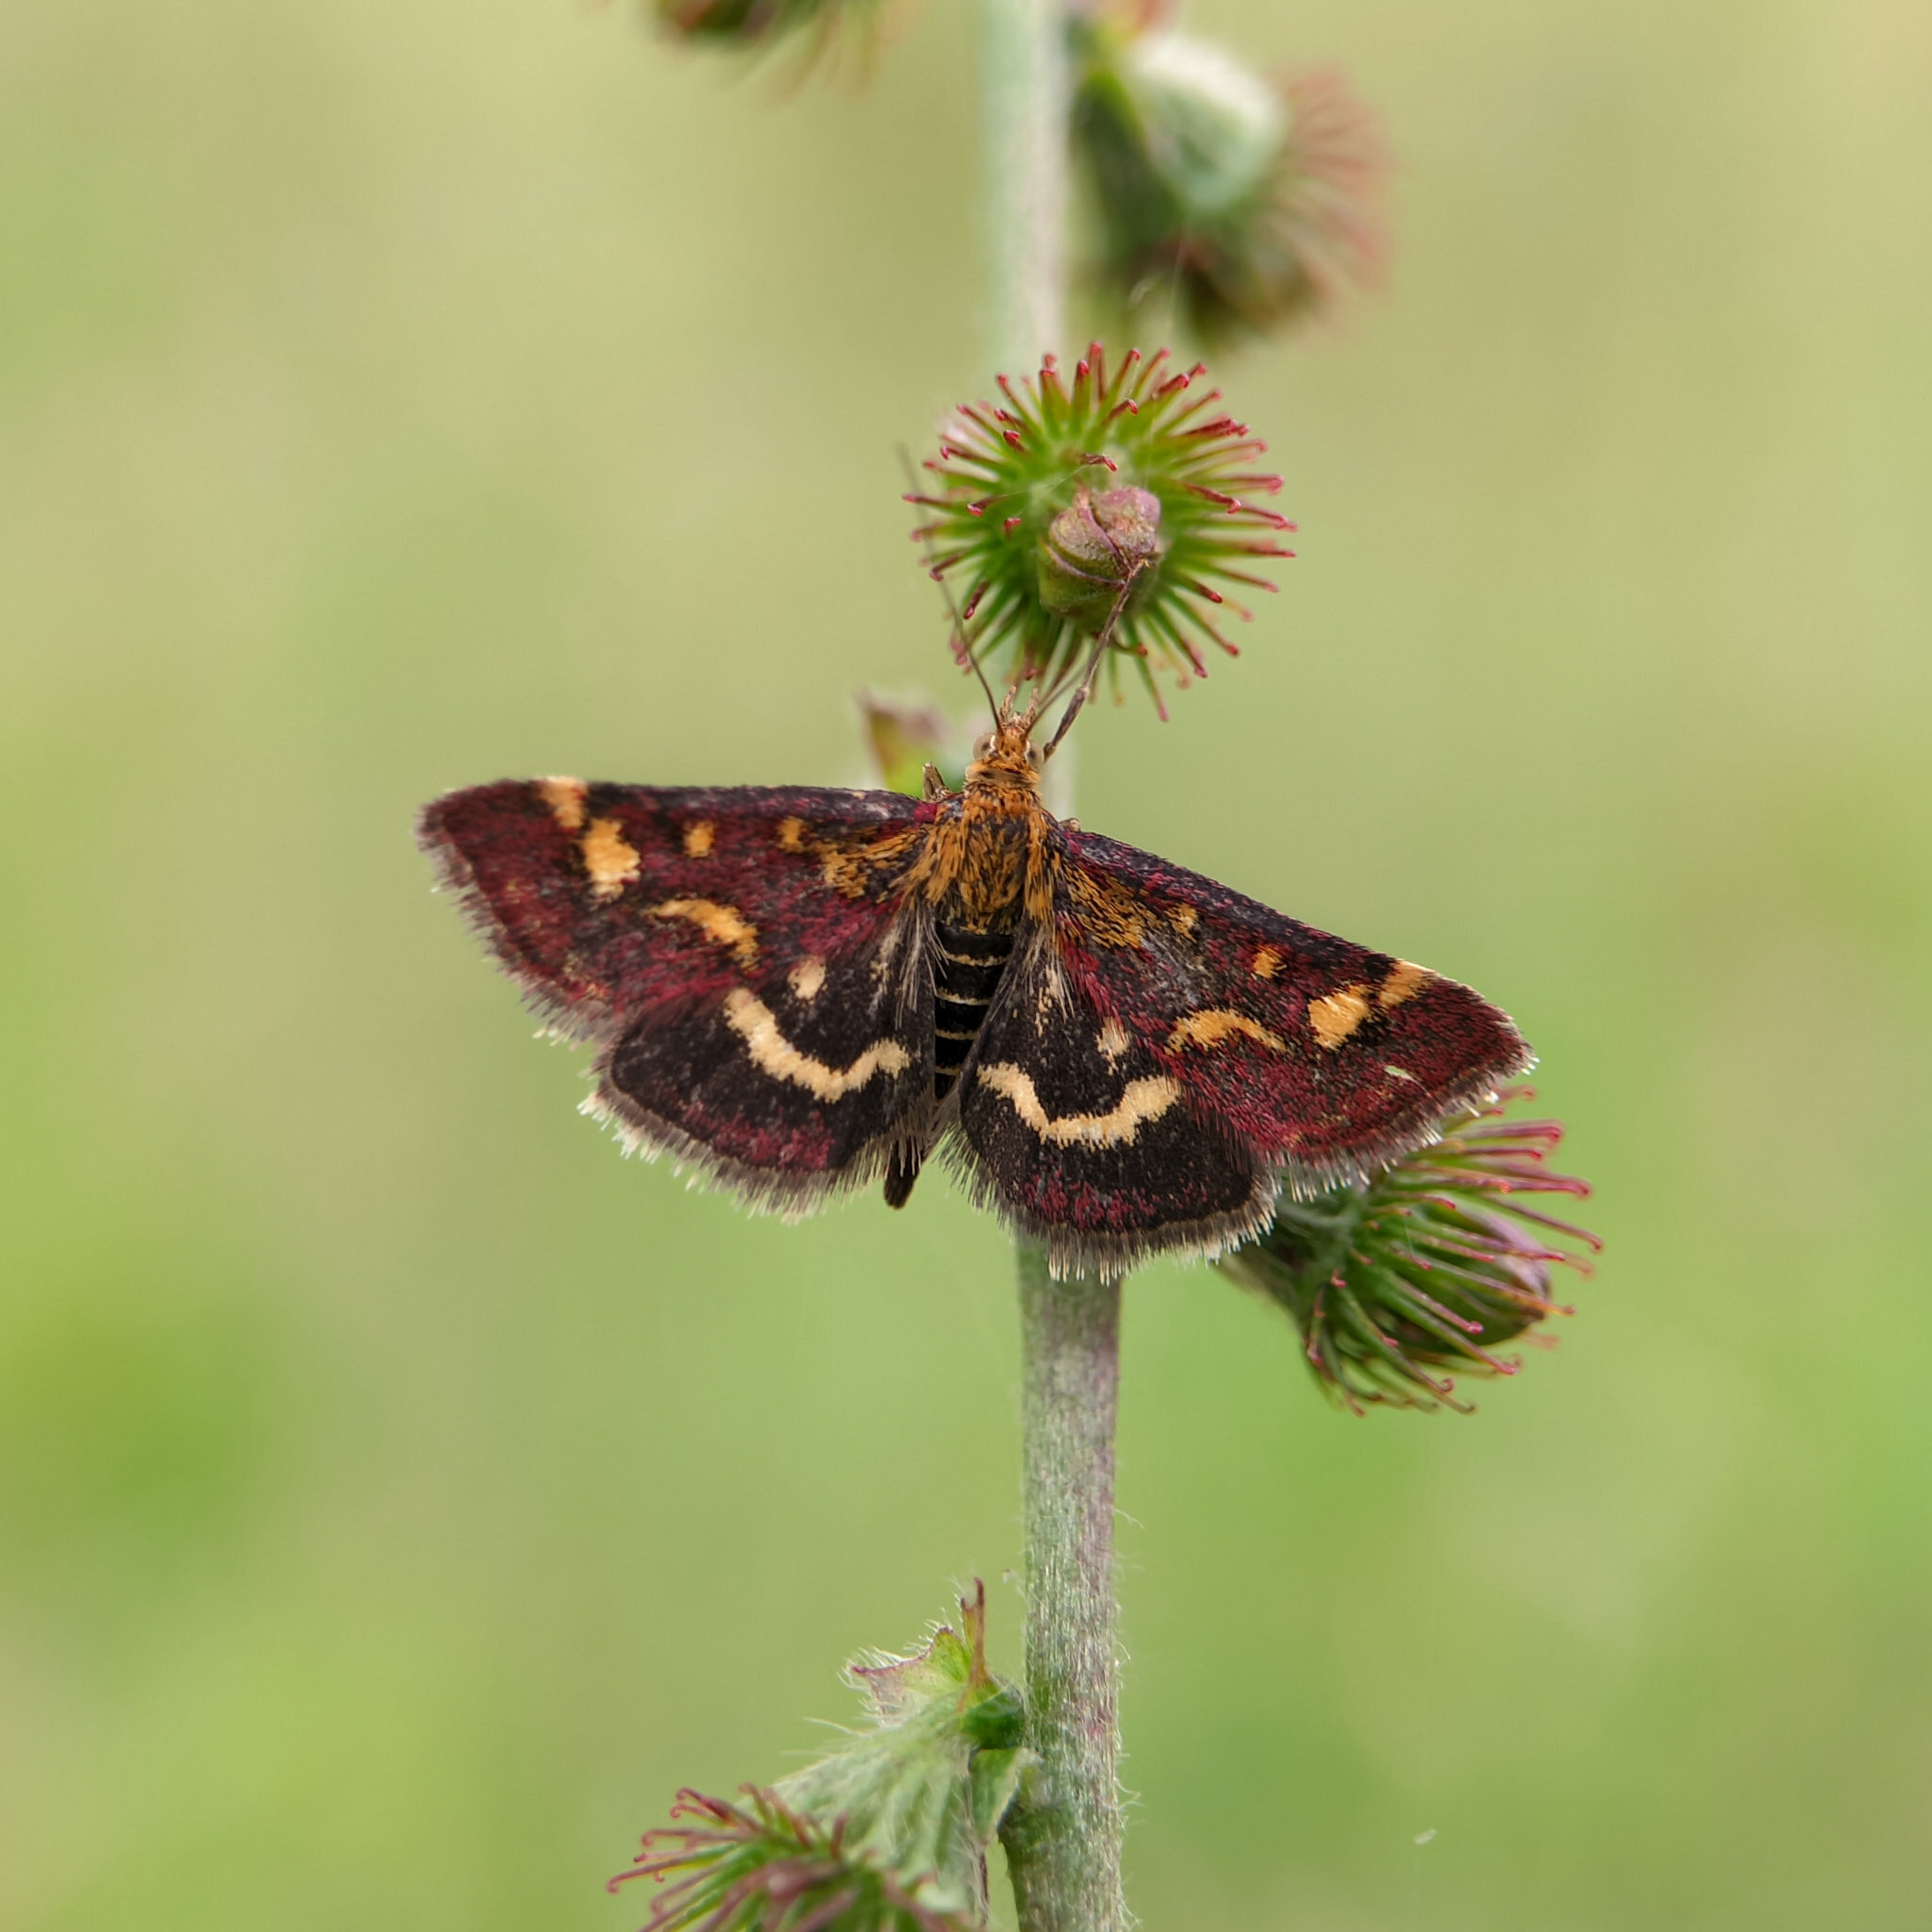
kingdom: Animalia
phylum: Arthropoda
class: Insecta
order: Lepidoptera
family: Crambidae
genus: Pyrausta
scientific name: Pyrausta purpuralis
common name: Common purple & gold
